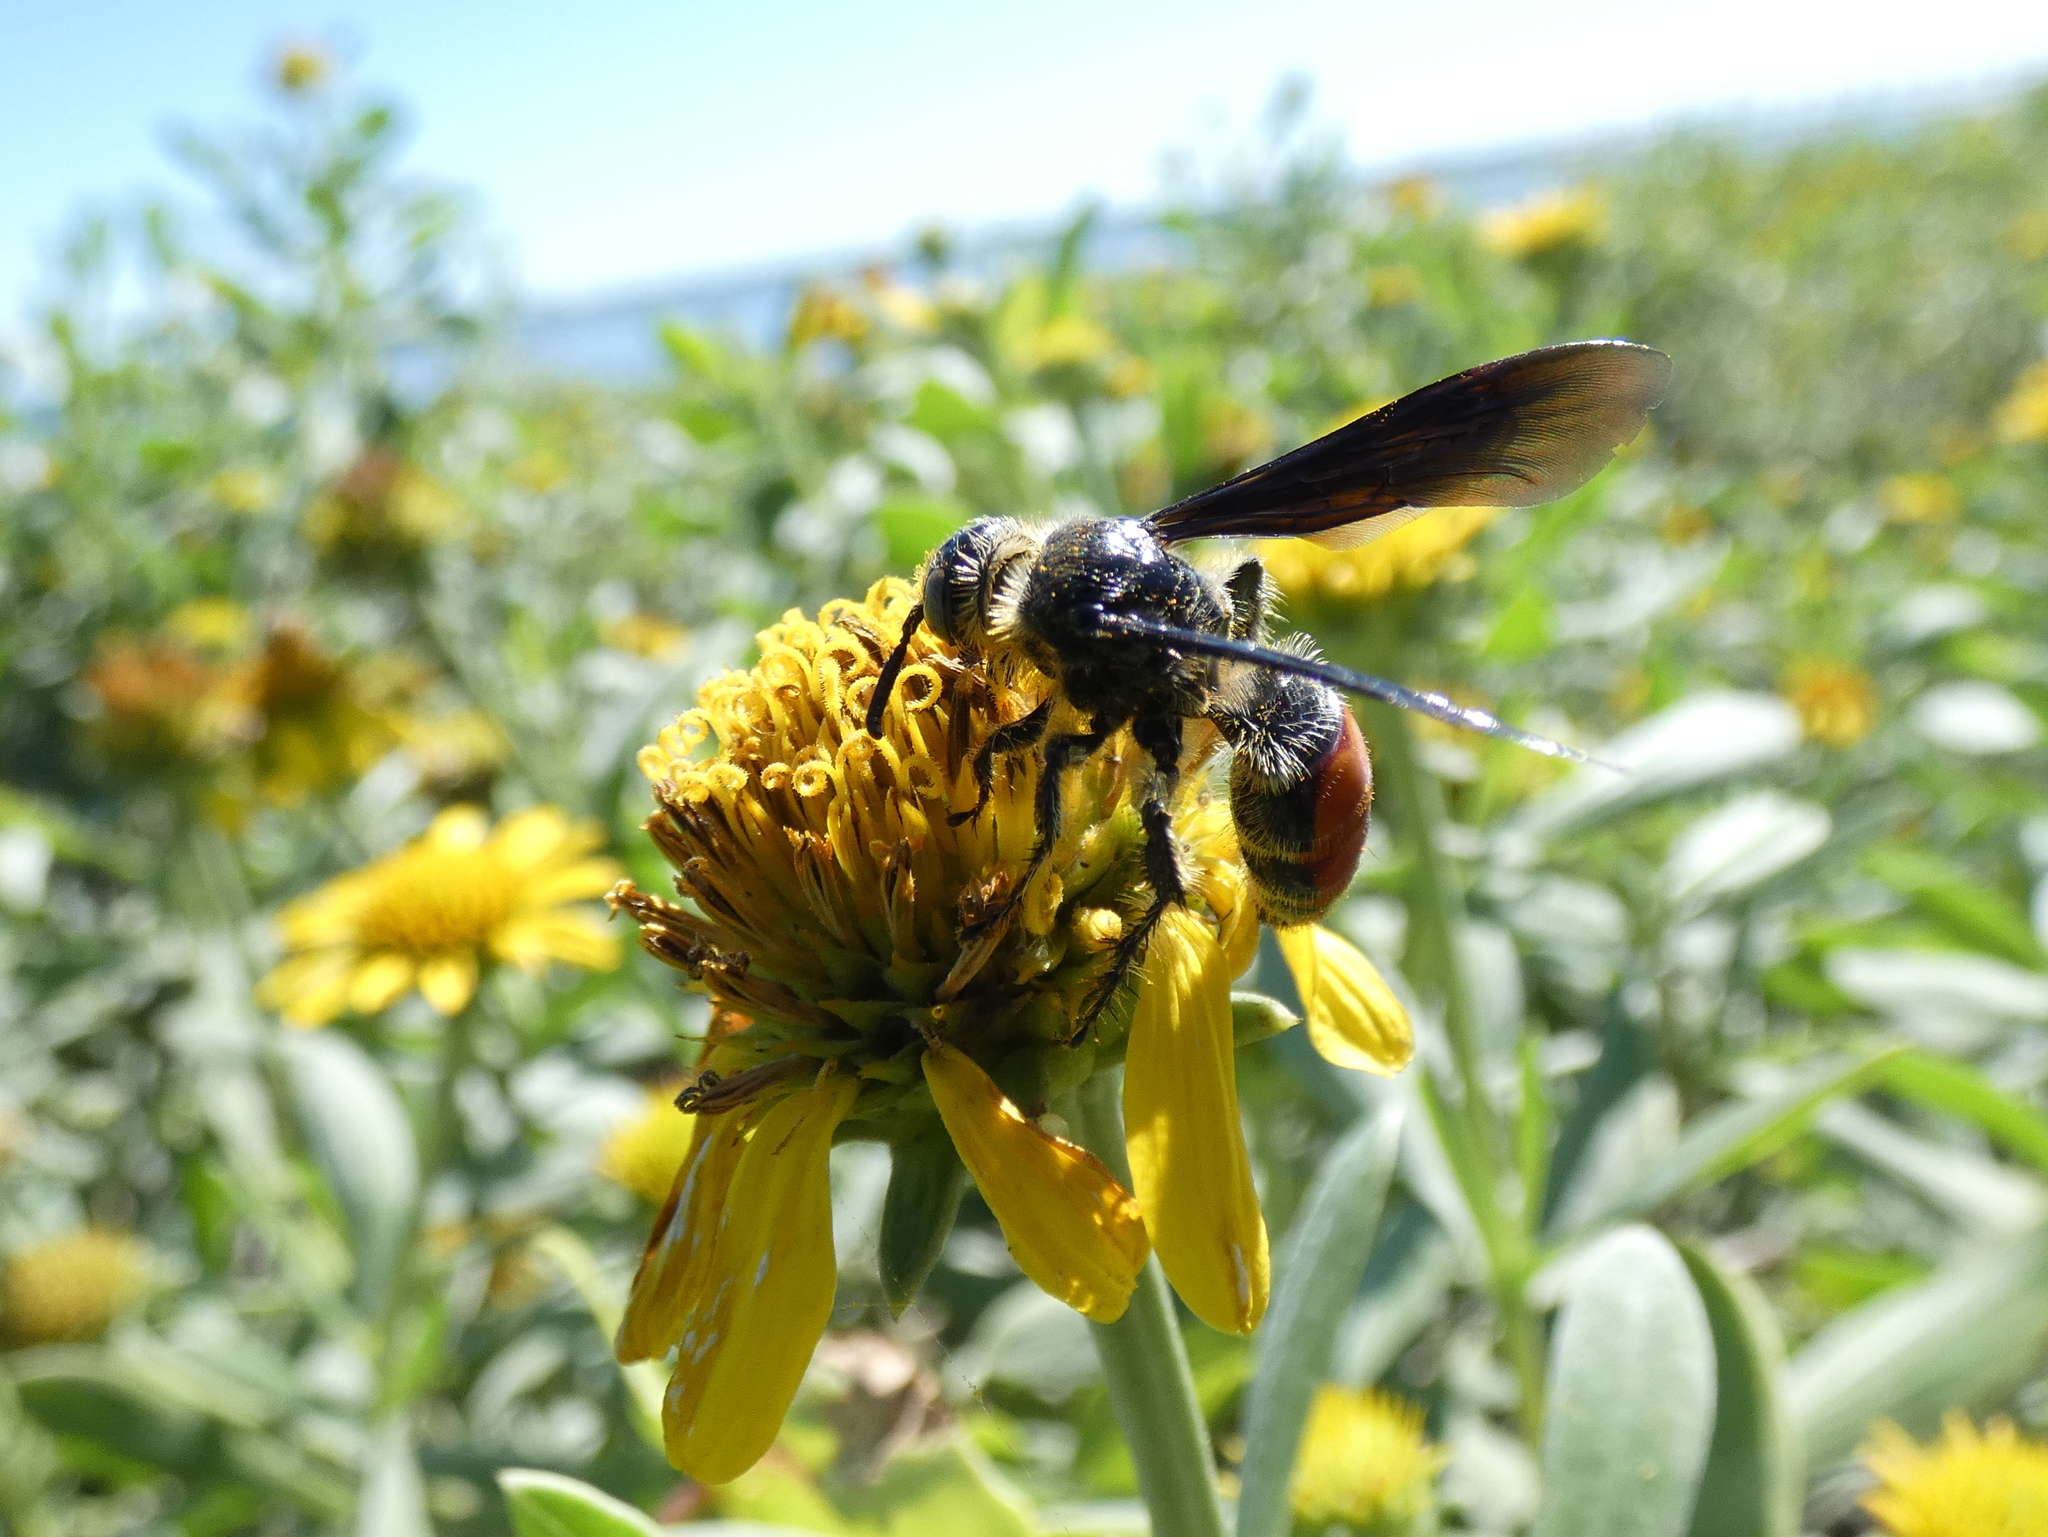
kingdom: Animalia
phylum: Arthropoda
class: Insecta
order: Hymenoptera
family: Scoliidae
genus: Dielis
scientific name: Dielis dorsata
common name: Scoliid wasp
